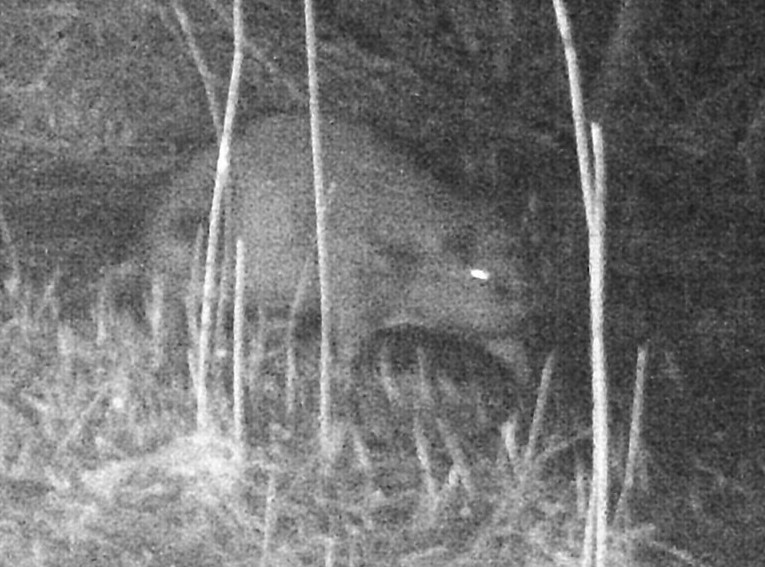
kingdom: Animalia
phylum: Chordata
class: Mammalia
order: Rodentia
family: Castoridae
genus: Castor
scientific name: Castor fiber
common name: Eurasian beaver
